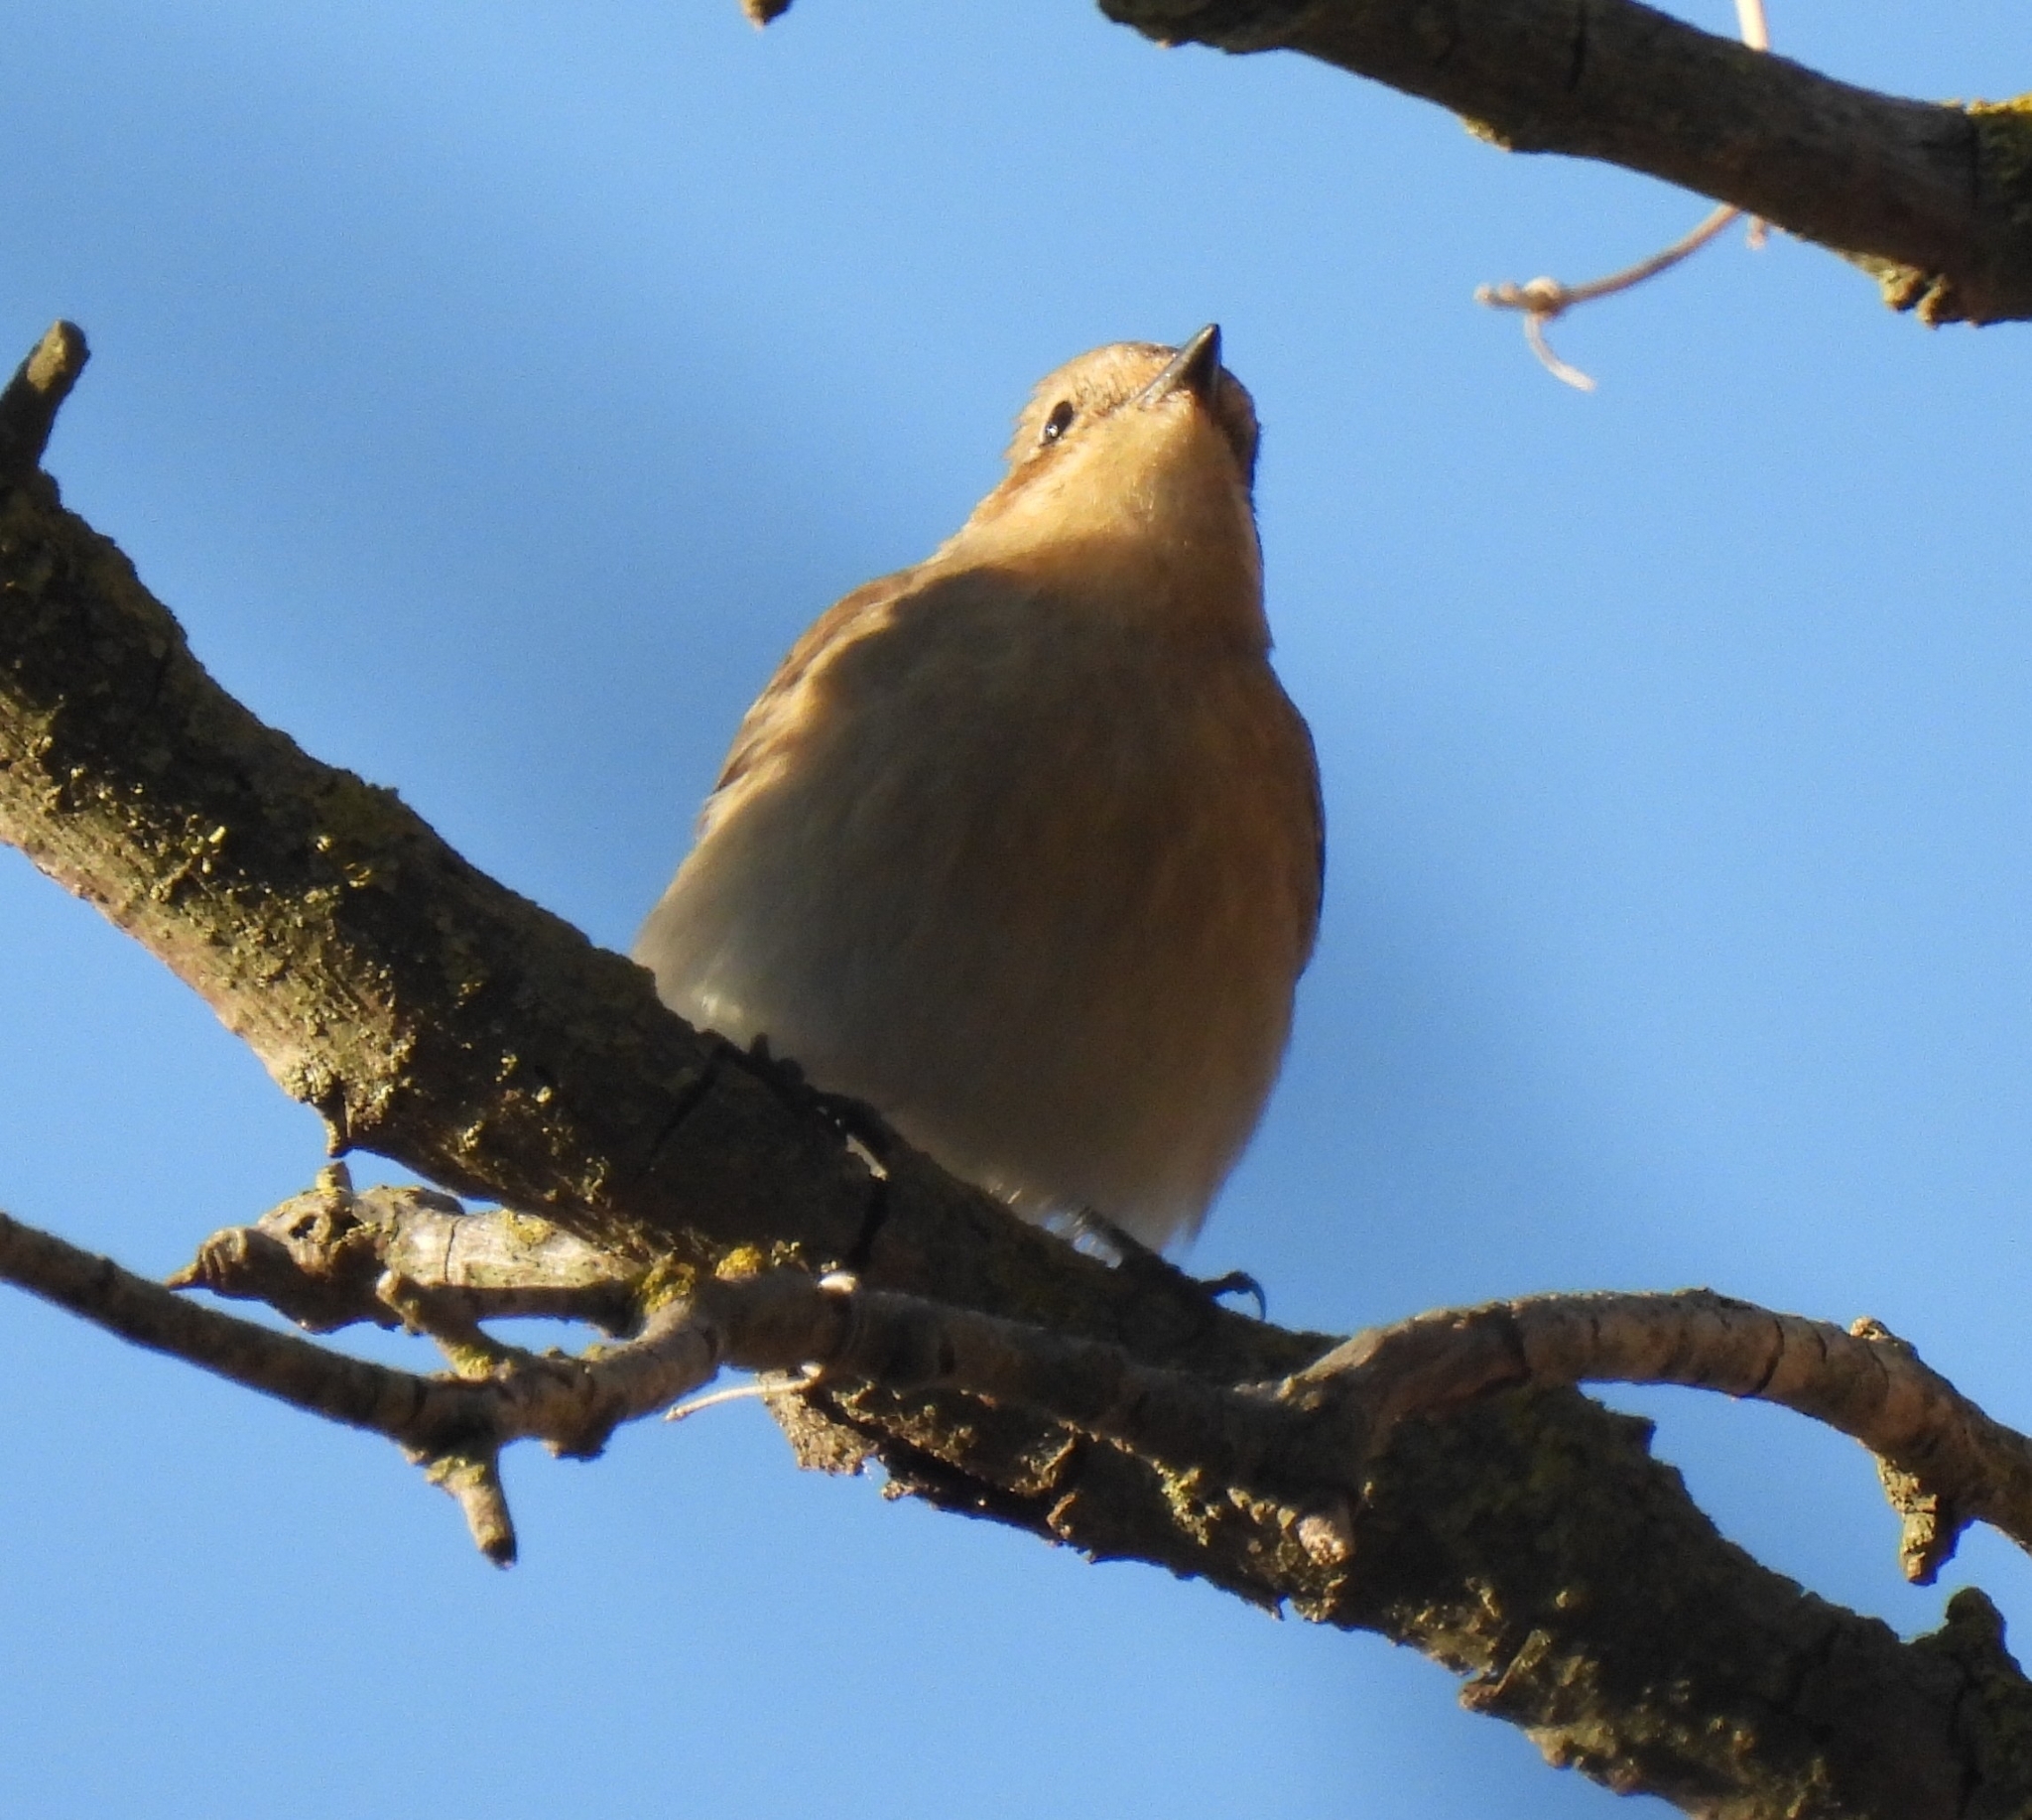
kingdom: Animalia
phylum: Chordata
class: Aves
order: Passeriformes
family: Muscicapidae
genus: Ficedula
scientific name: Ficedula hypoleuca
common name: European pied flycatcher
